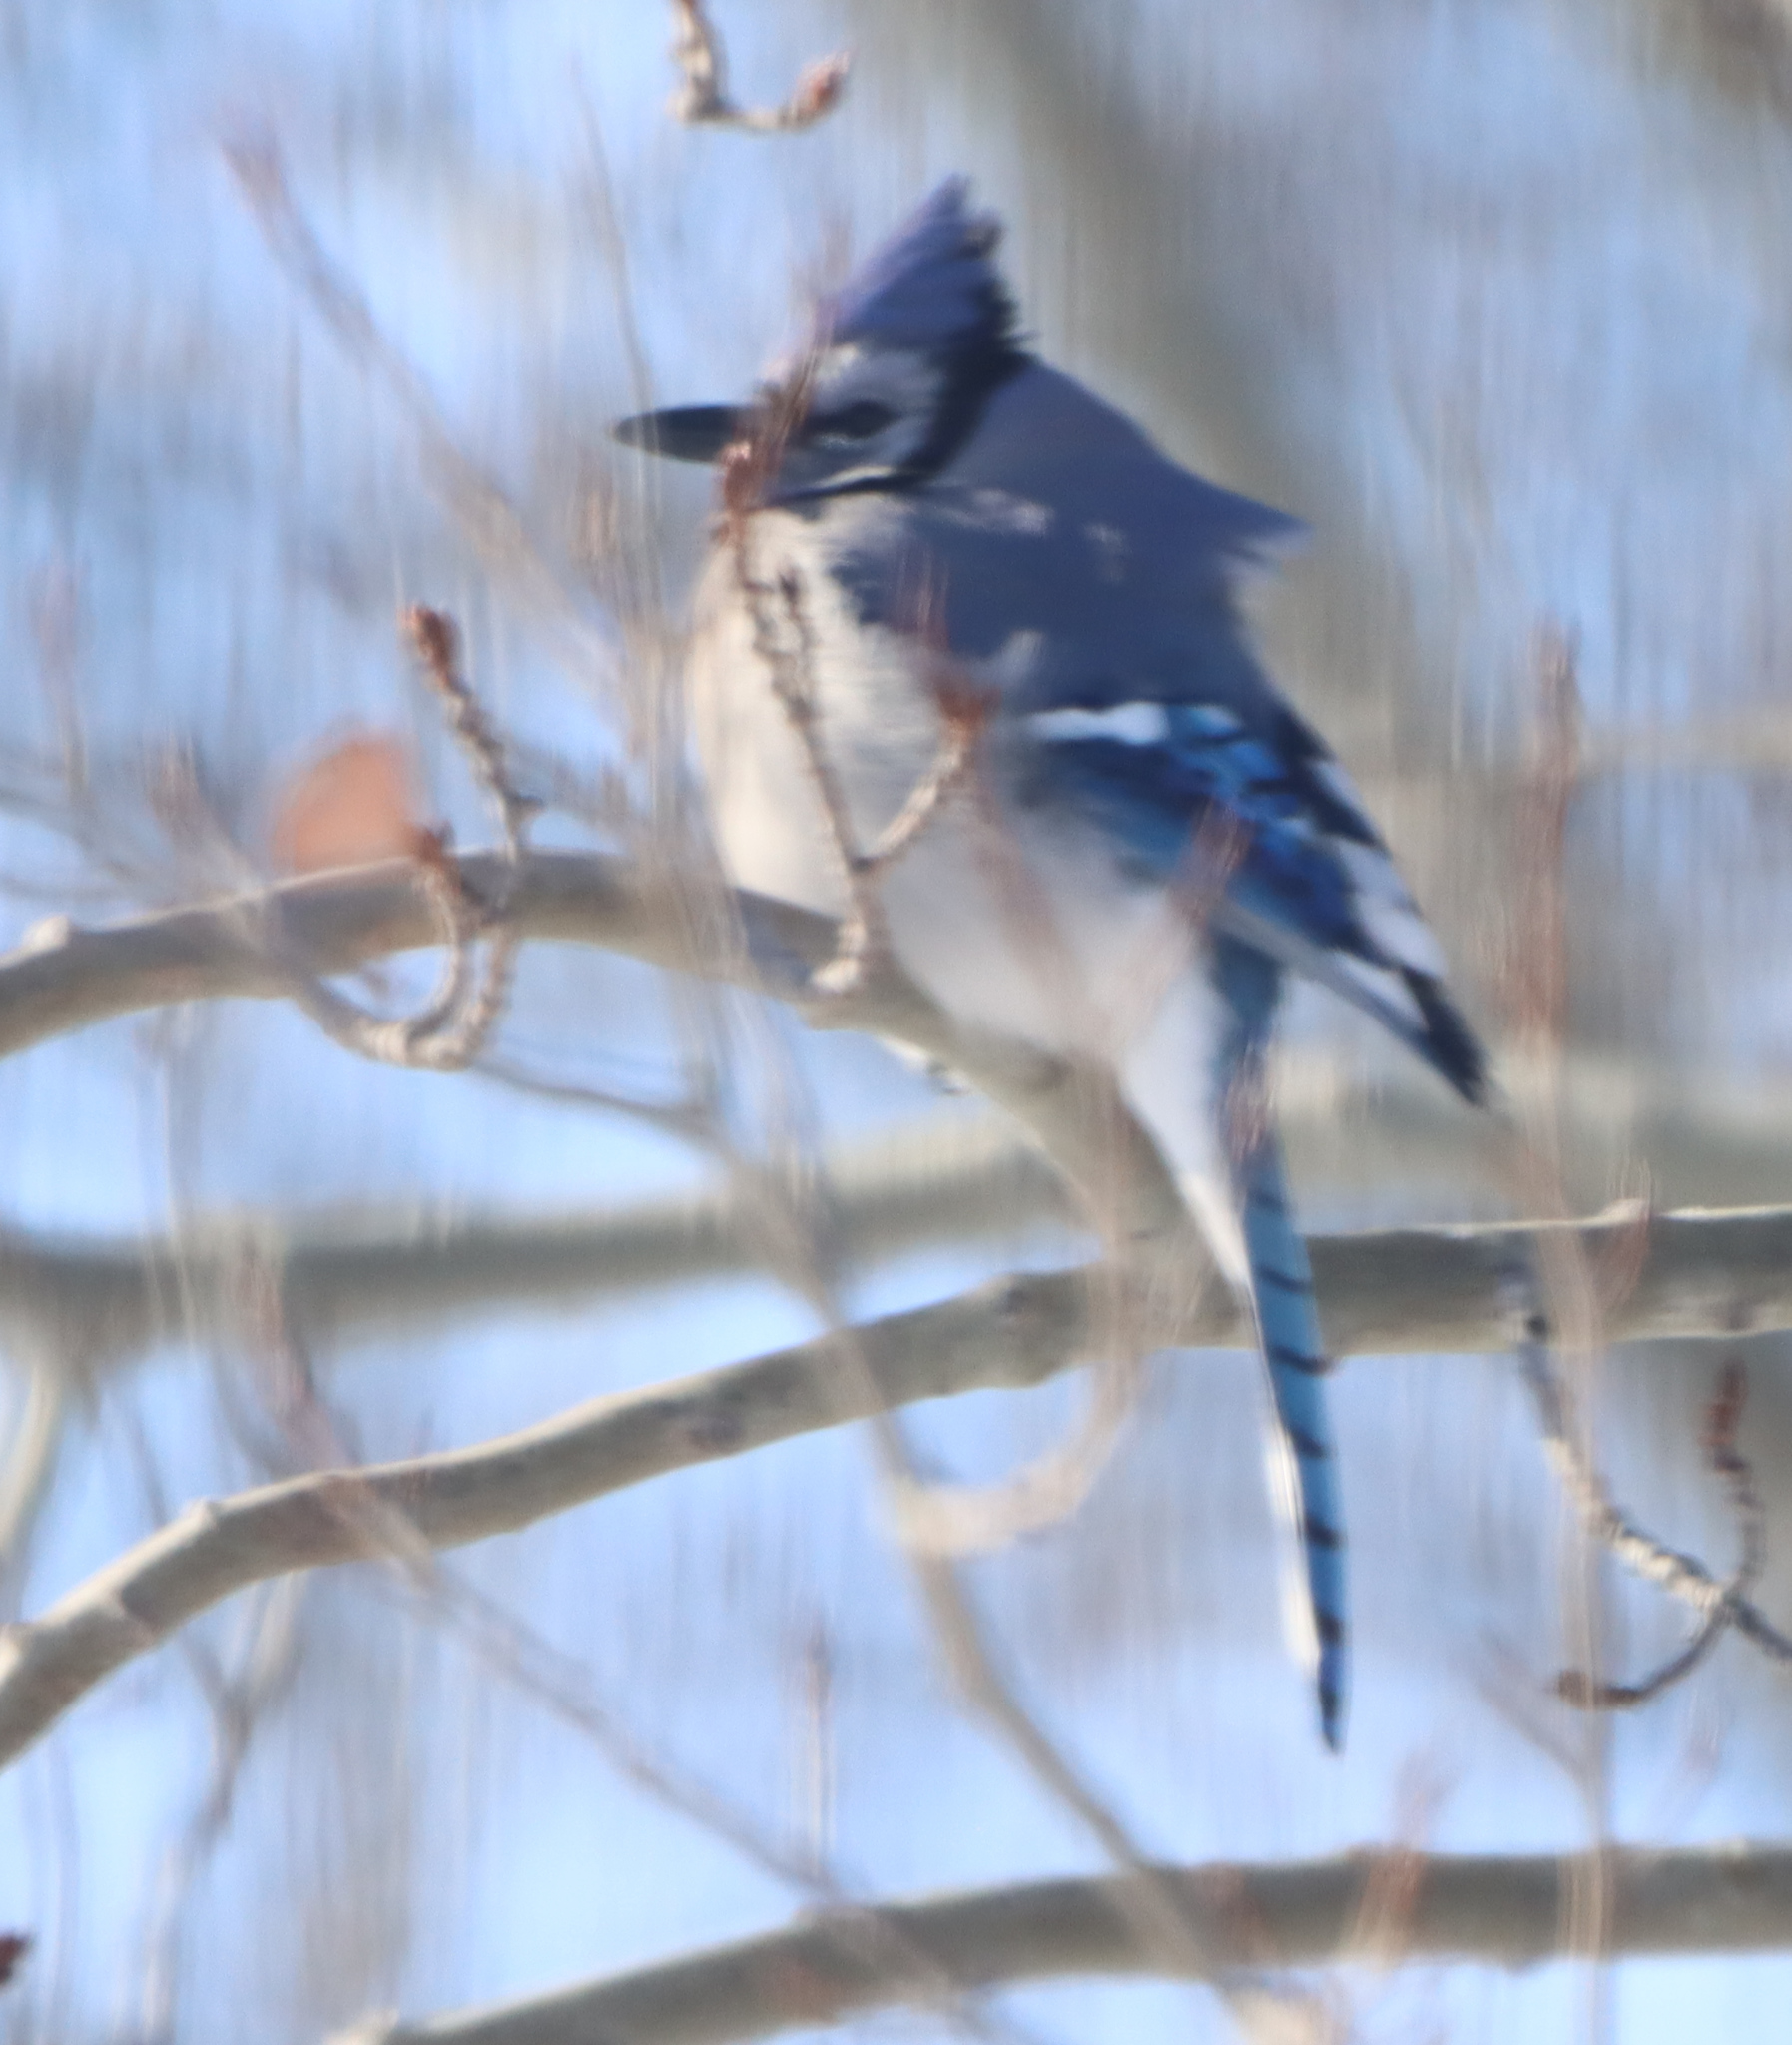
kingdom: Animalia
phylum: Chordata
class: Aves
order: Passeriformes
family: Corvidae
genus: Cyanocitta
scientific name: Cyanocitta cristata
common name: Blue jay
